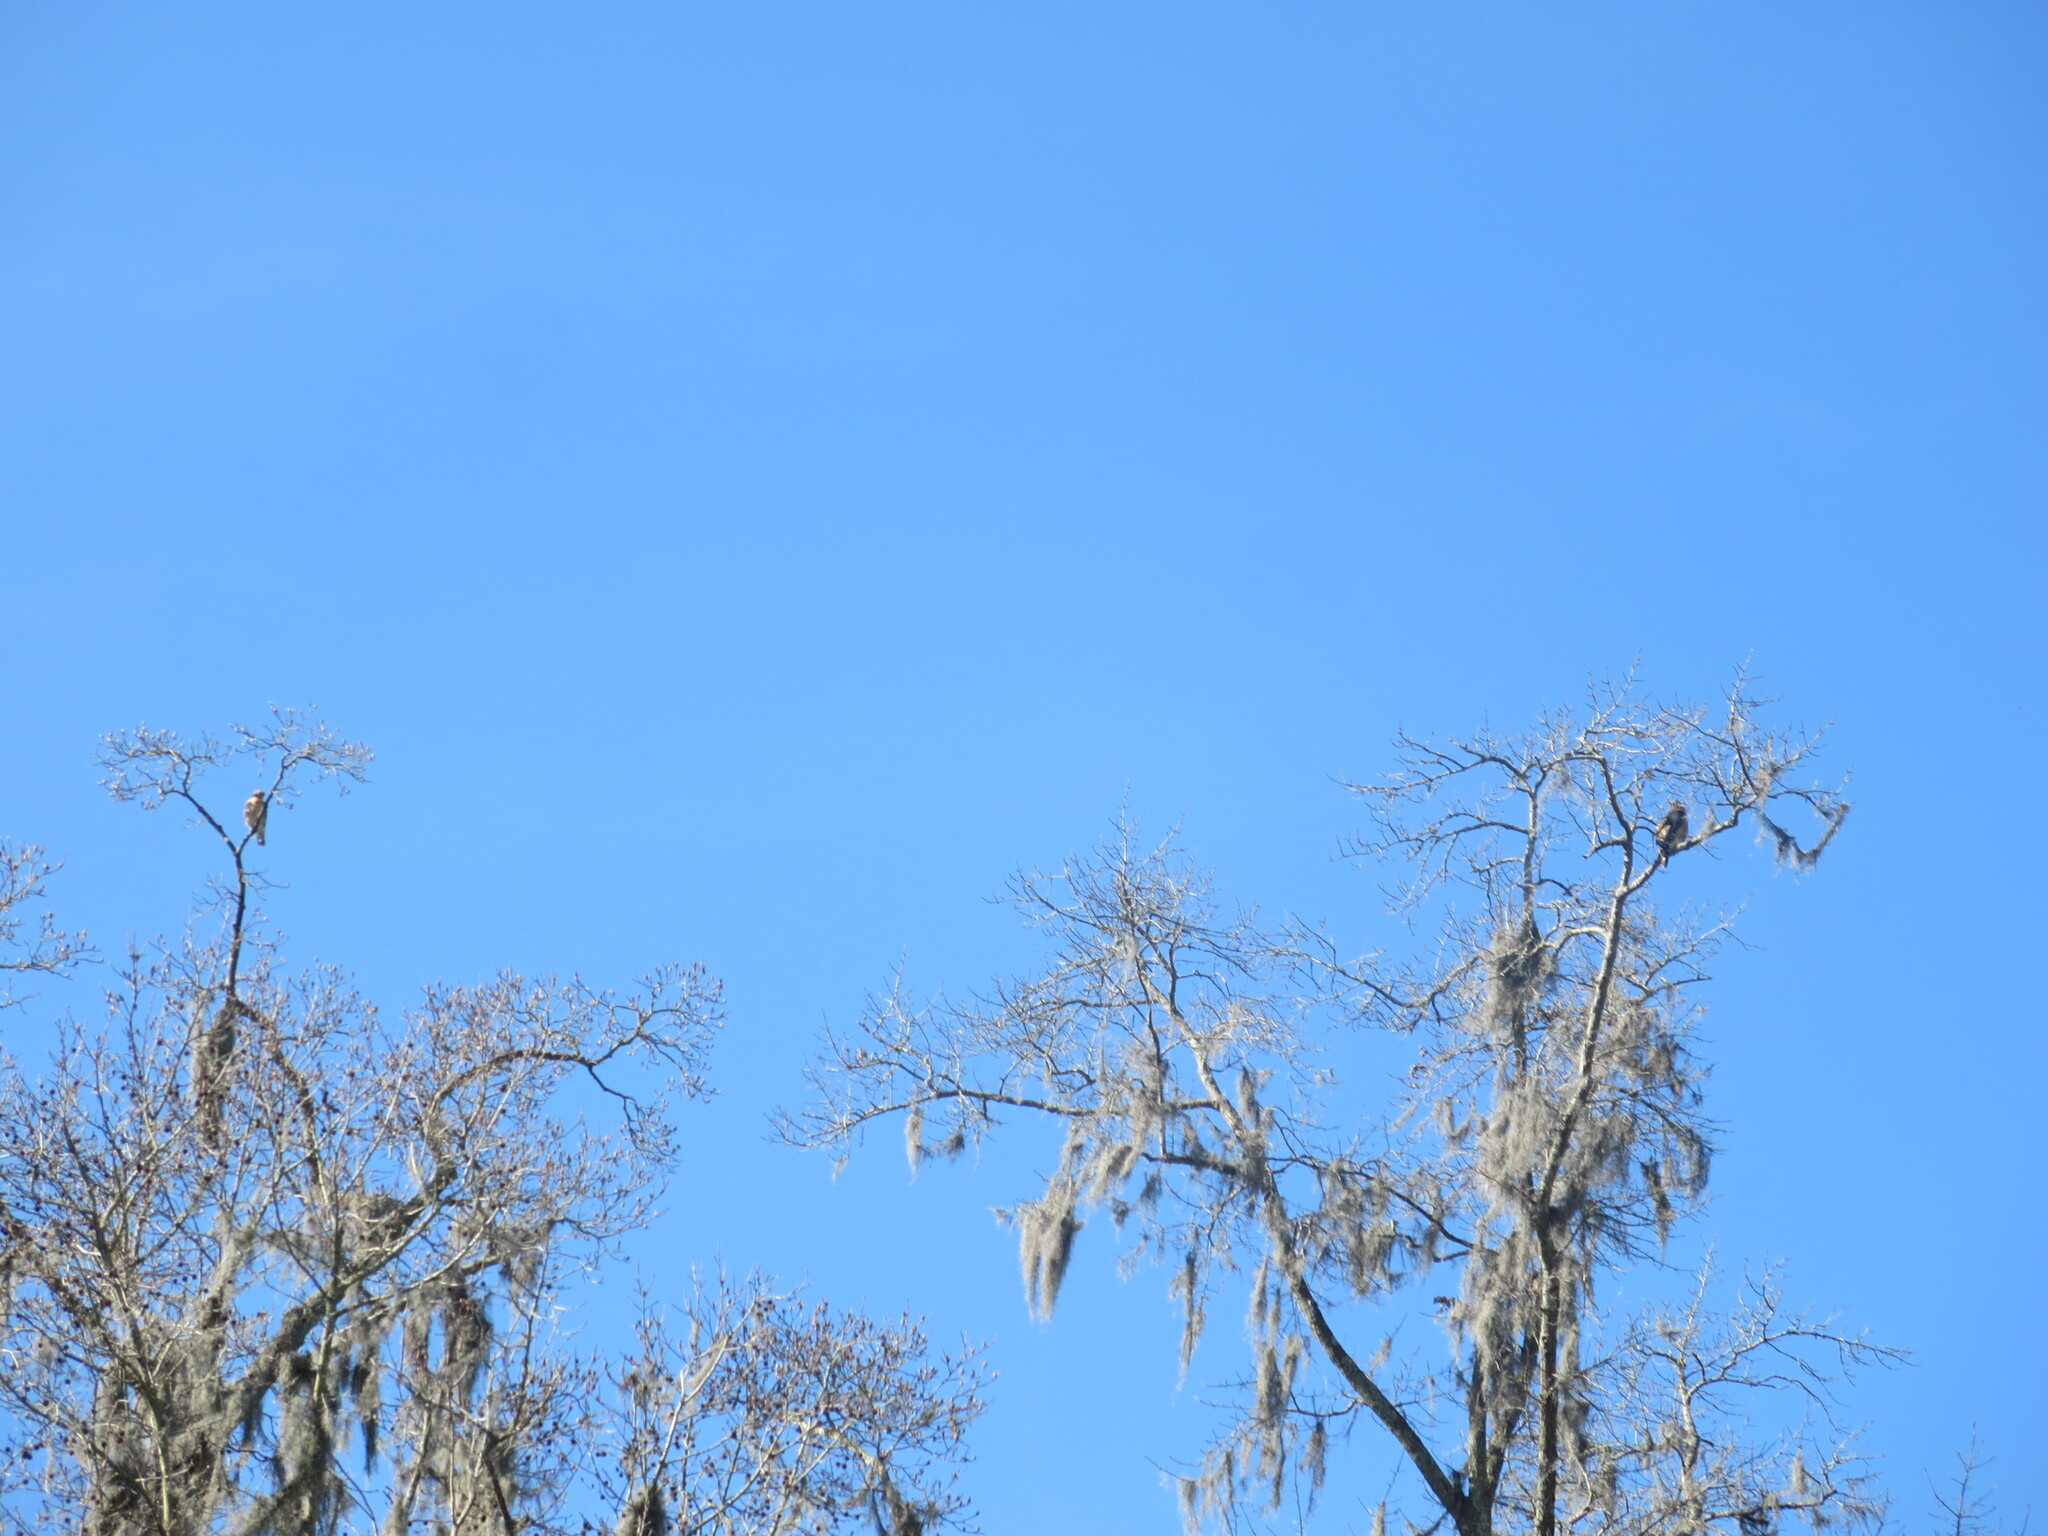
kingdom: Animalia
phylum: Chordata
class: Aves
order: Accipitriformes
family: Accipitridae
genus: Buteo
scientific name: Buteo lineatus
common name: Red-shouldered hawk
